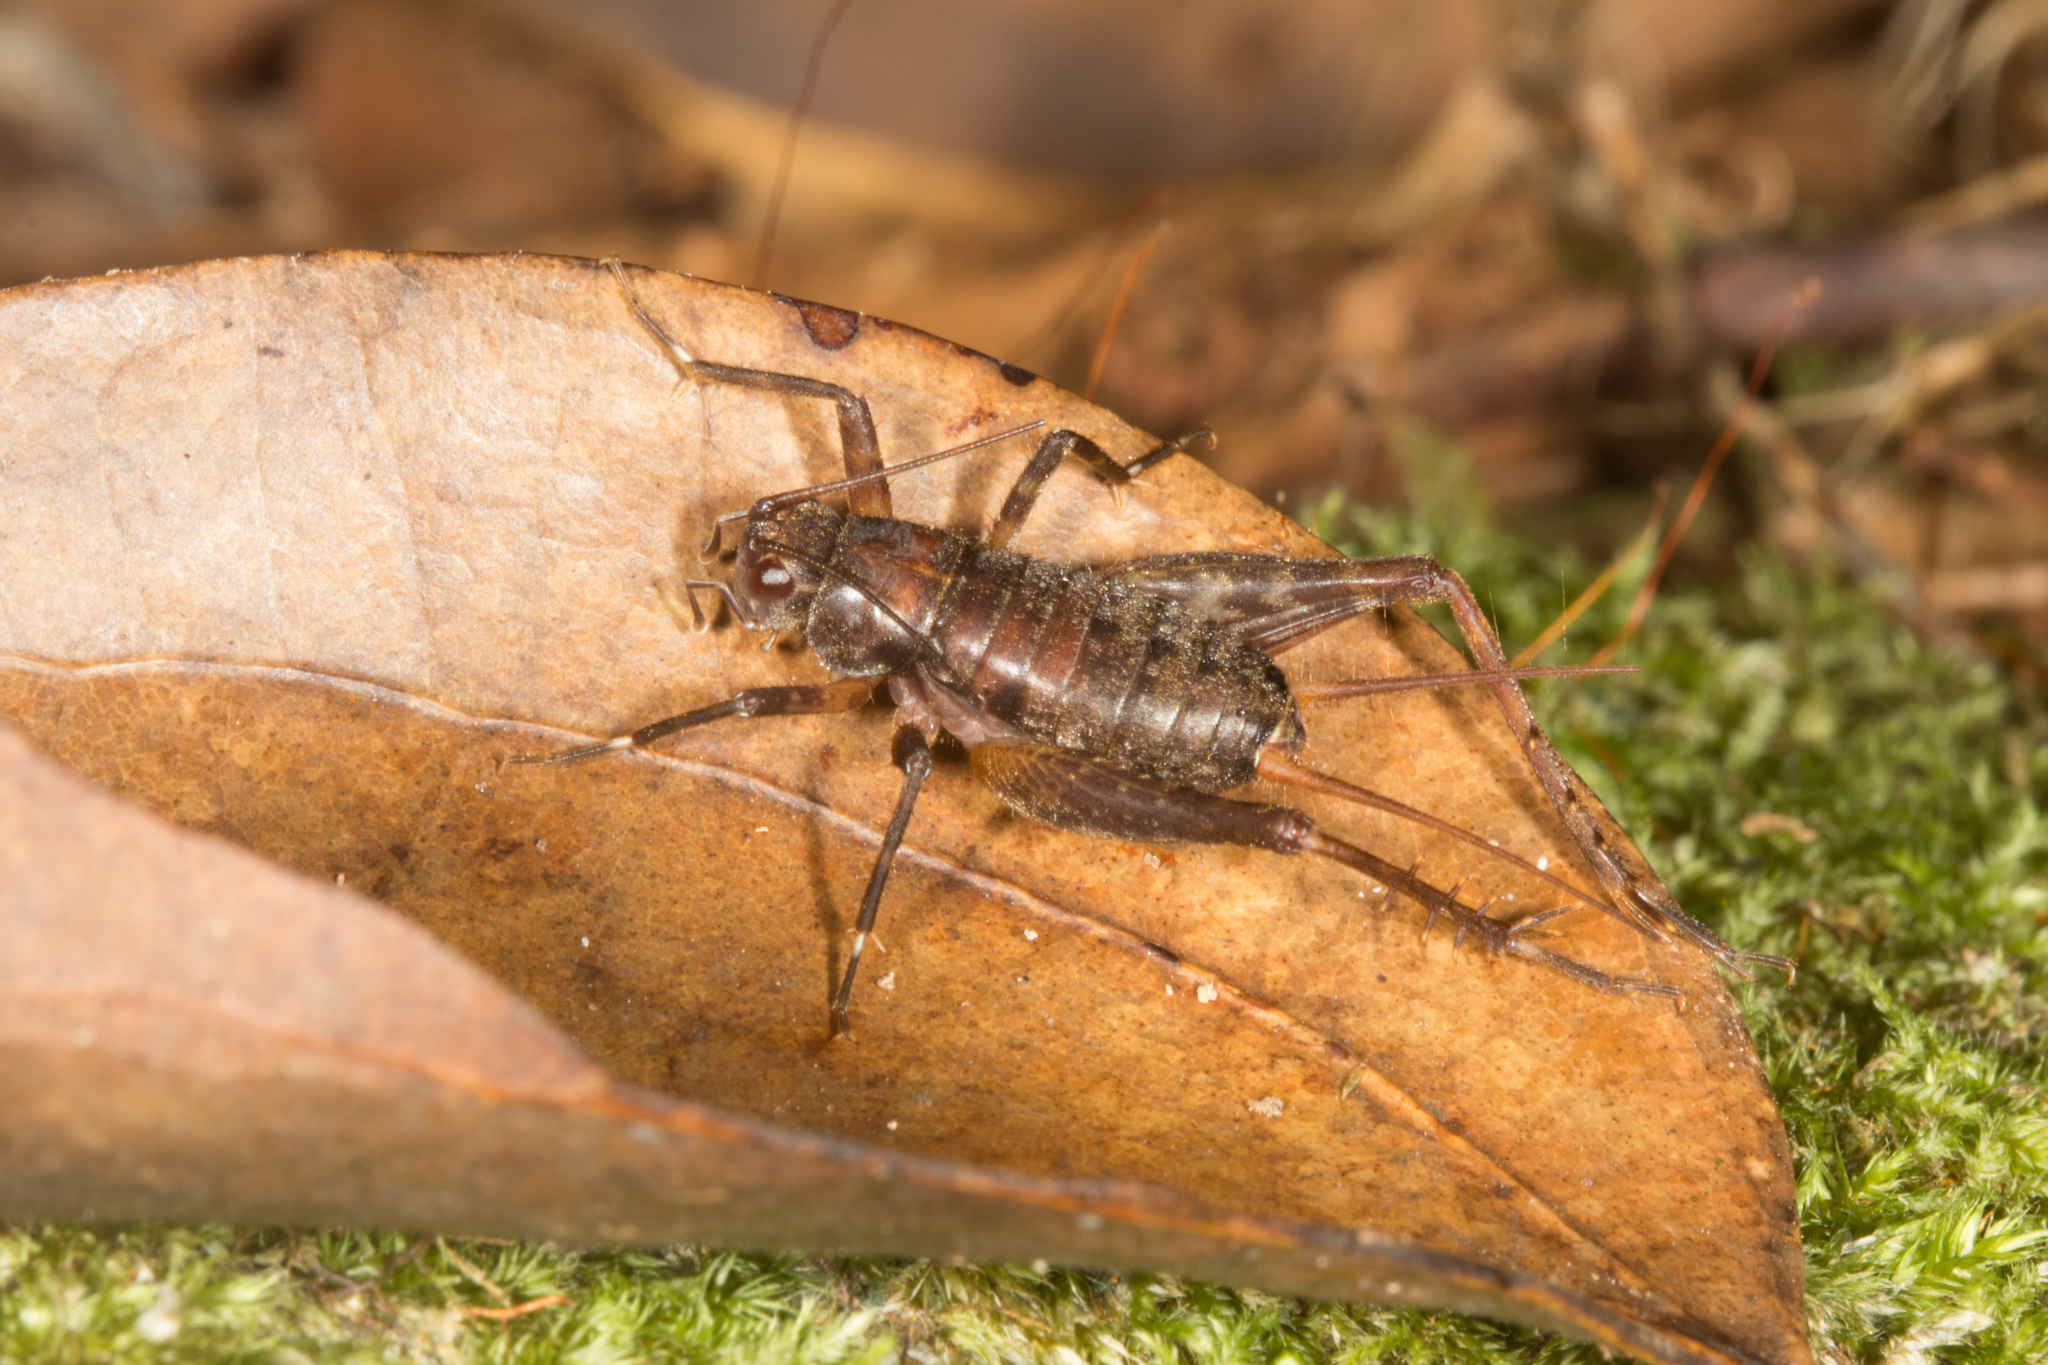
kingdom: Animalia
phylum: Arthropoda
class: Insecta
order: Orthoptera
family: Phalangopsidae
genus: Phaeogryllus
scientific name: Phaeogryllus fuscus
